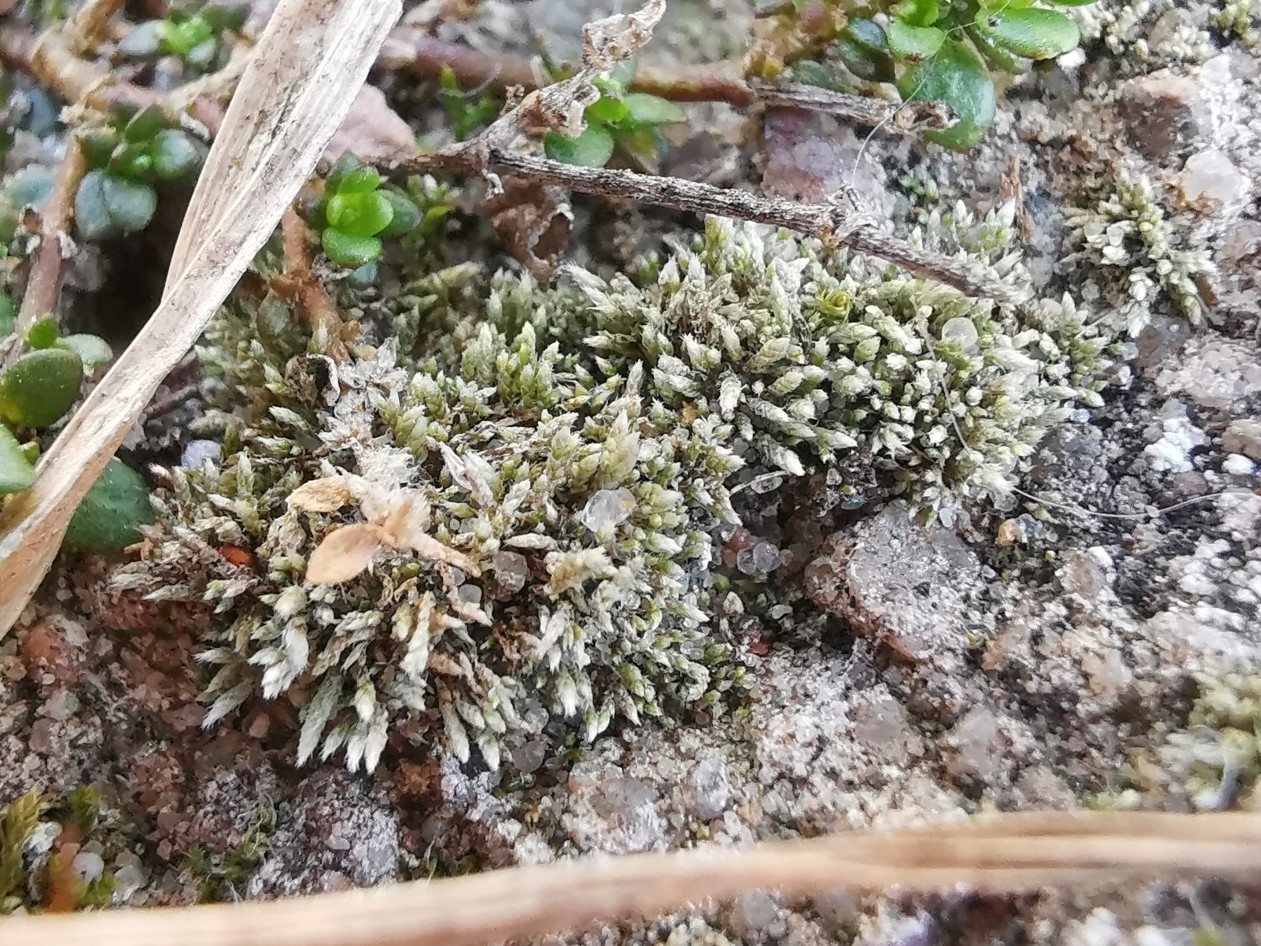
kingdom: Plantae
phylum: Bryophyta
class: Bryopsida
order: Bryales
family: Bryaceae
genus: Bryum
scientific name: Bryum argenteum
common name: Silver-moss
